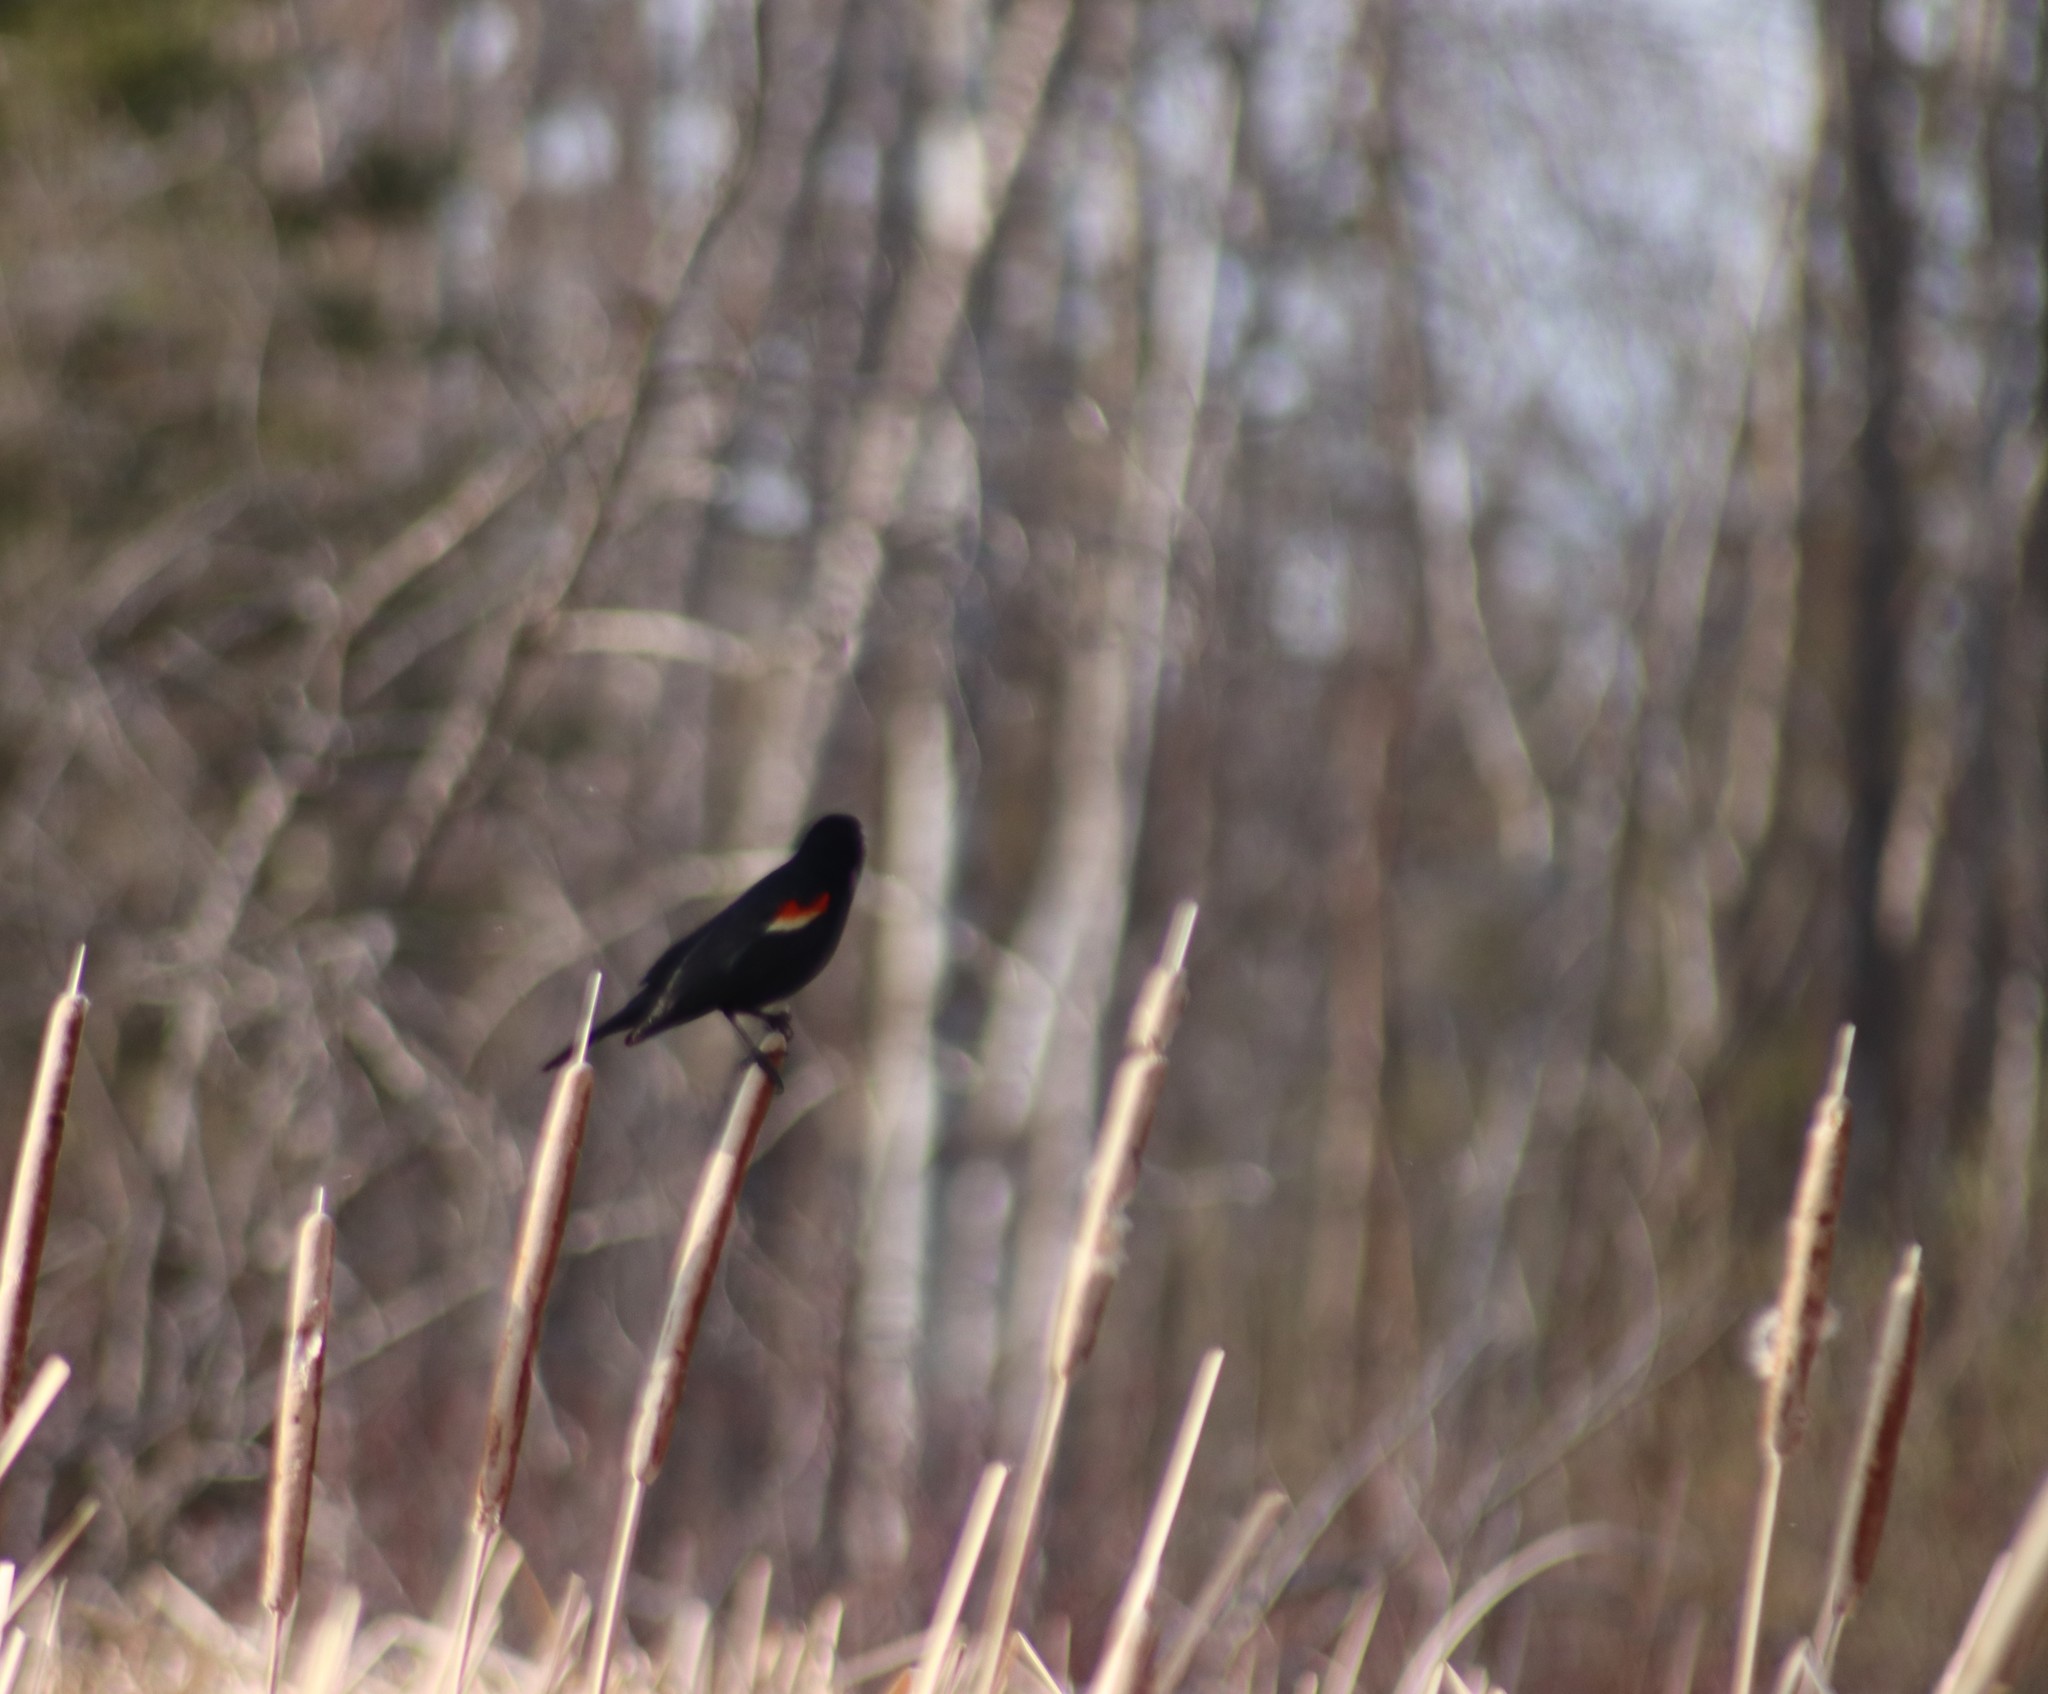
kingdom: Animalia
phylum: Chordata
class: Aves
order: Passeriformes
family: Icteridae
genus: Agelaius
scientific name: Agelaius phoeniceus
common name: Red-winged blackbird
